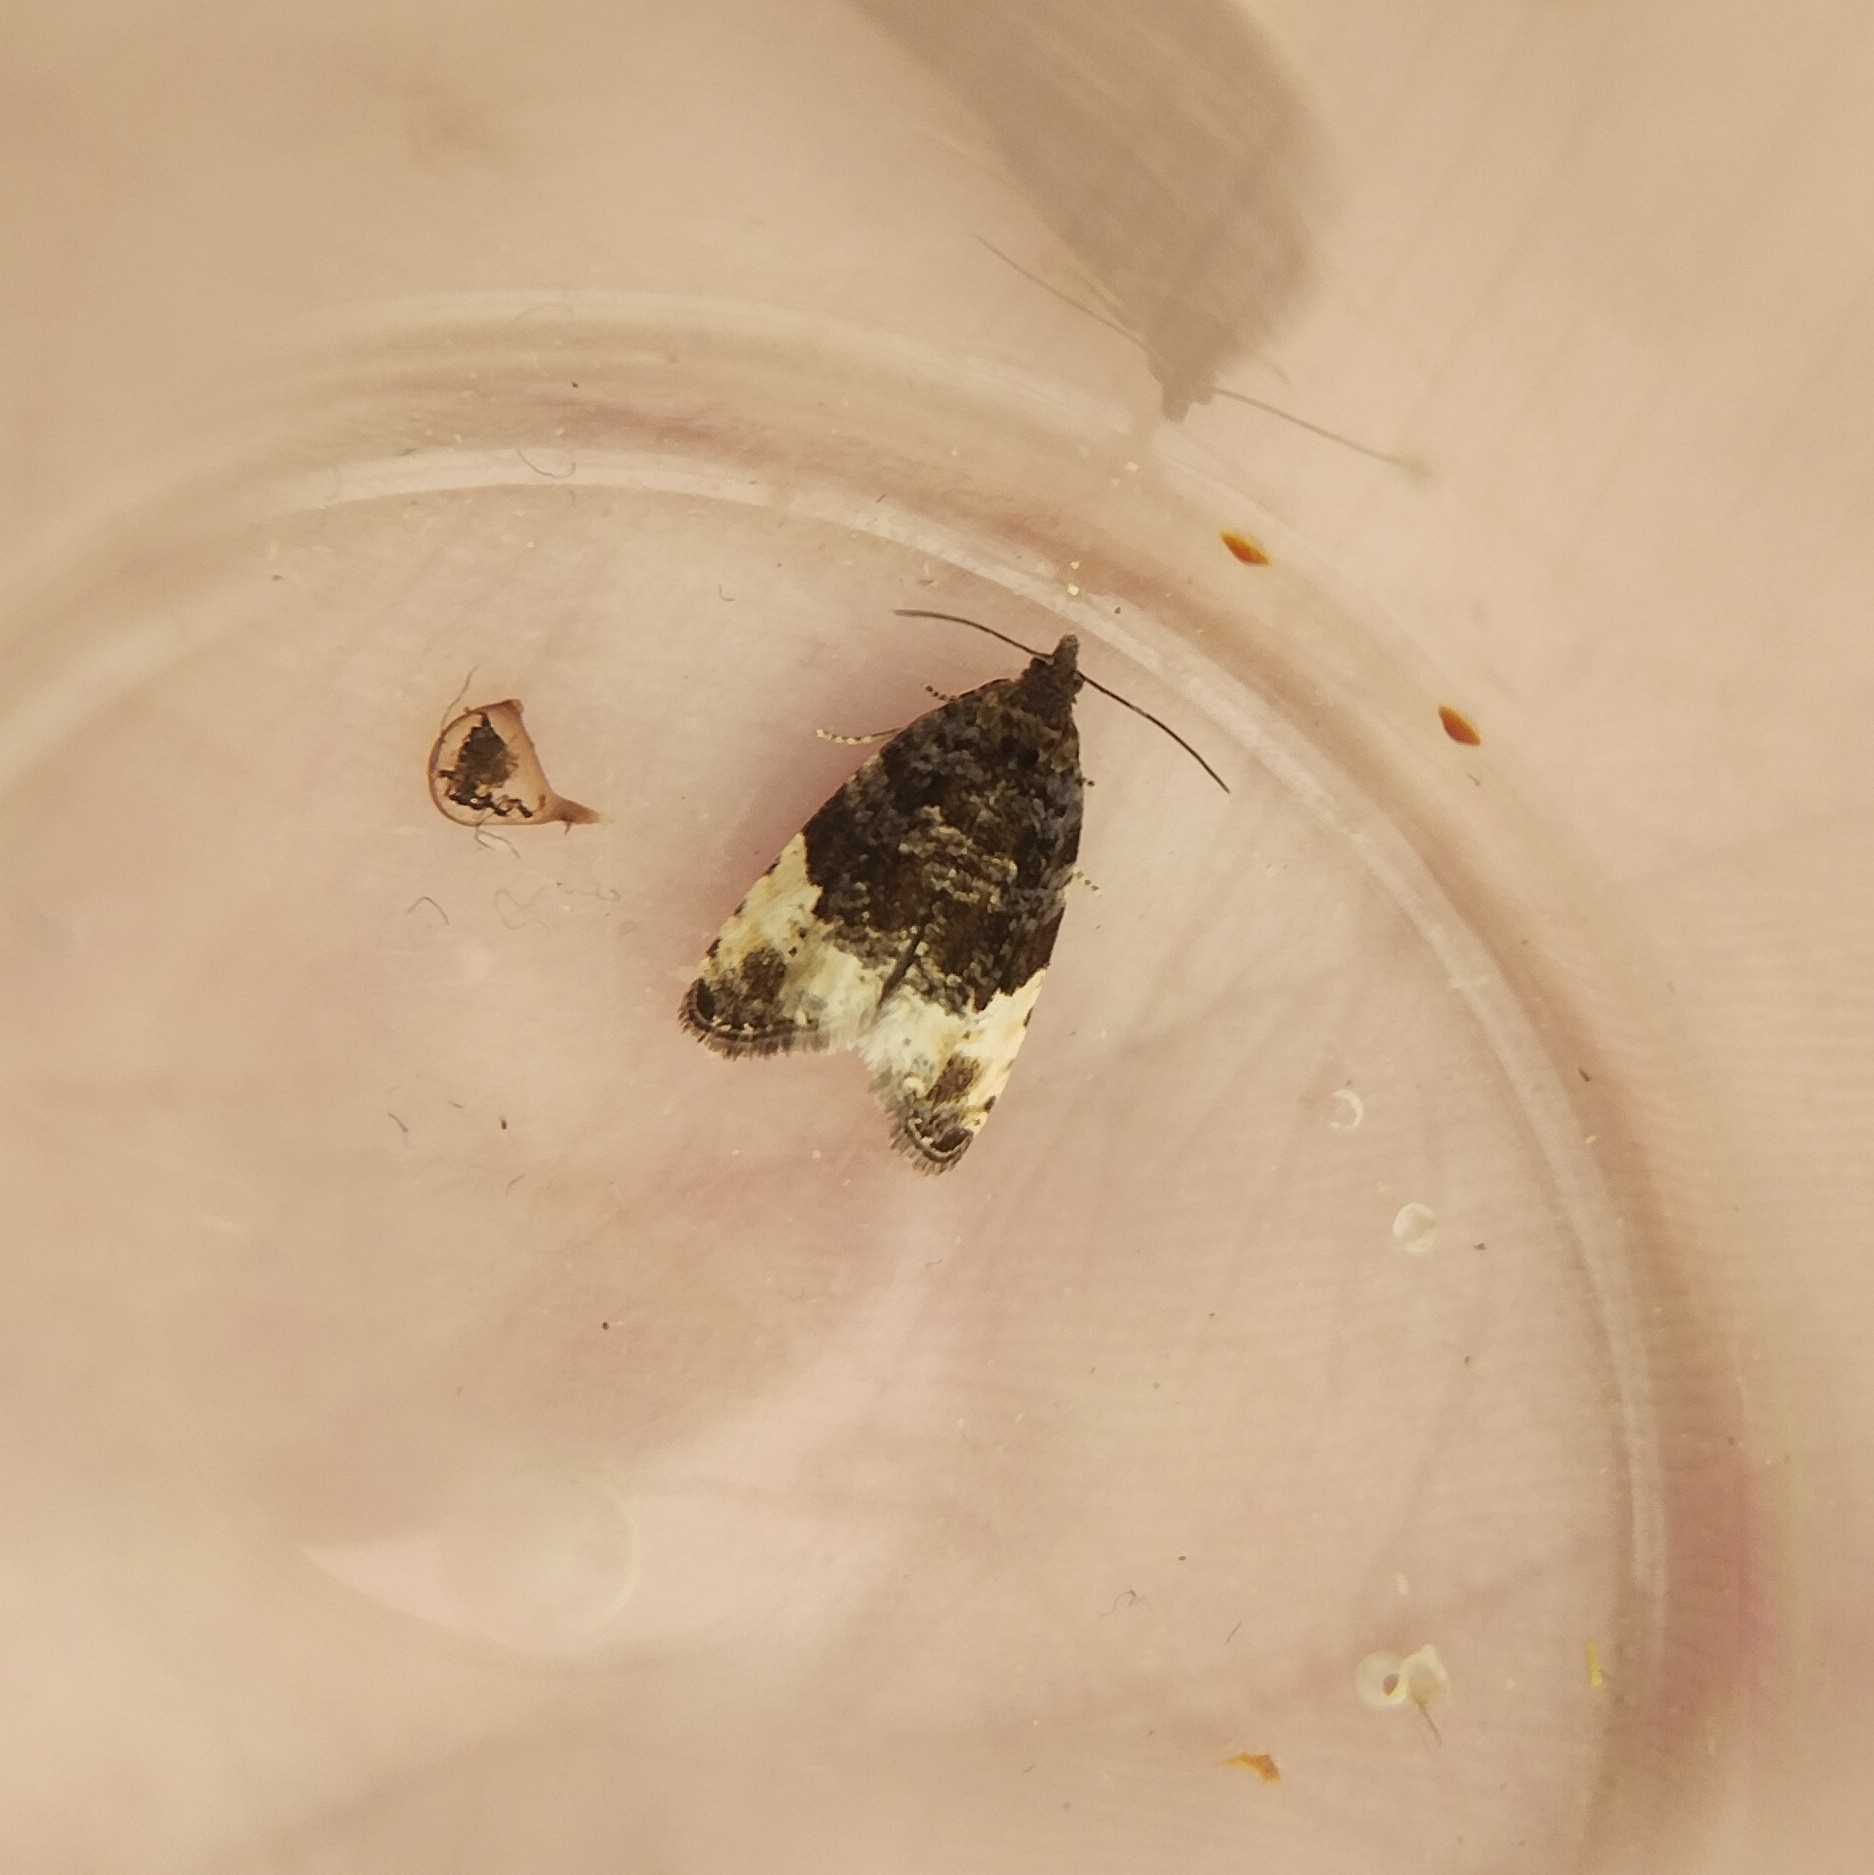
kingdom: Animalia
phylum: Arthropoda
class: Insecta
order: Lepidoptera
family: Tortricidae
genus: Hedya
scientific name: Hedya pruniana
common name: Plum tortrix
